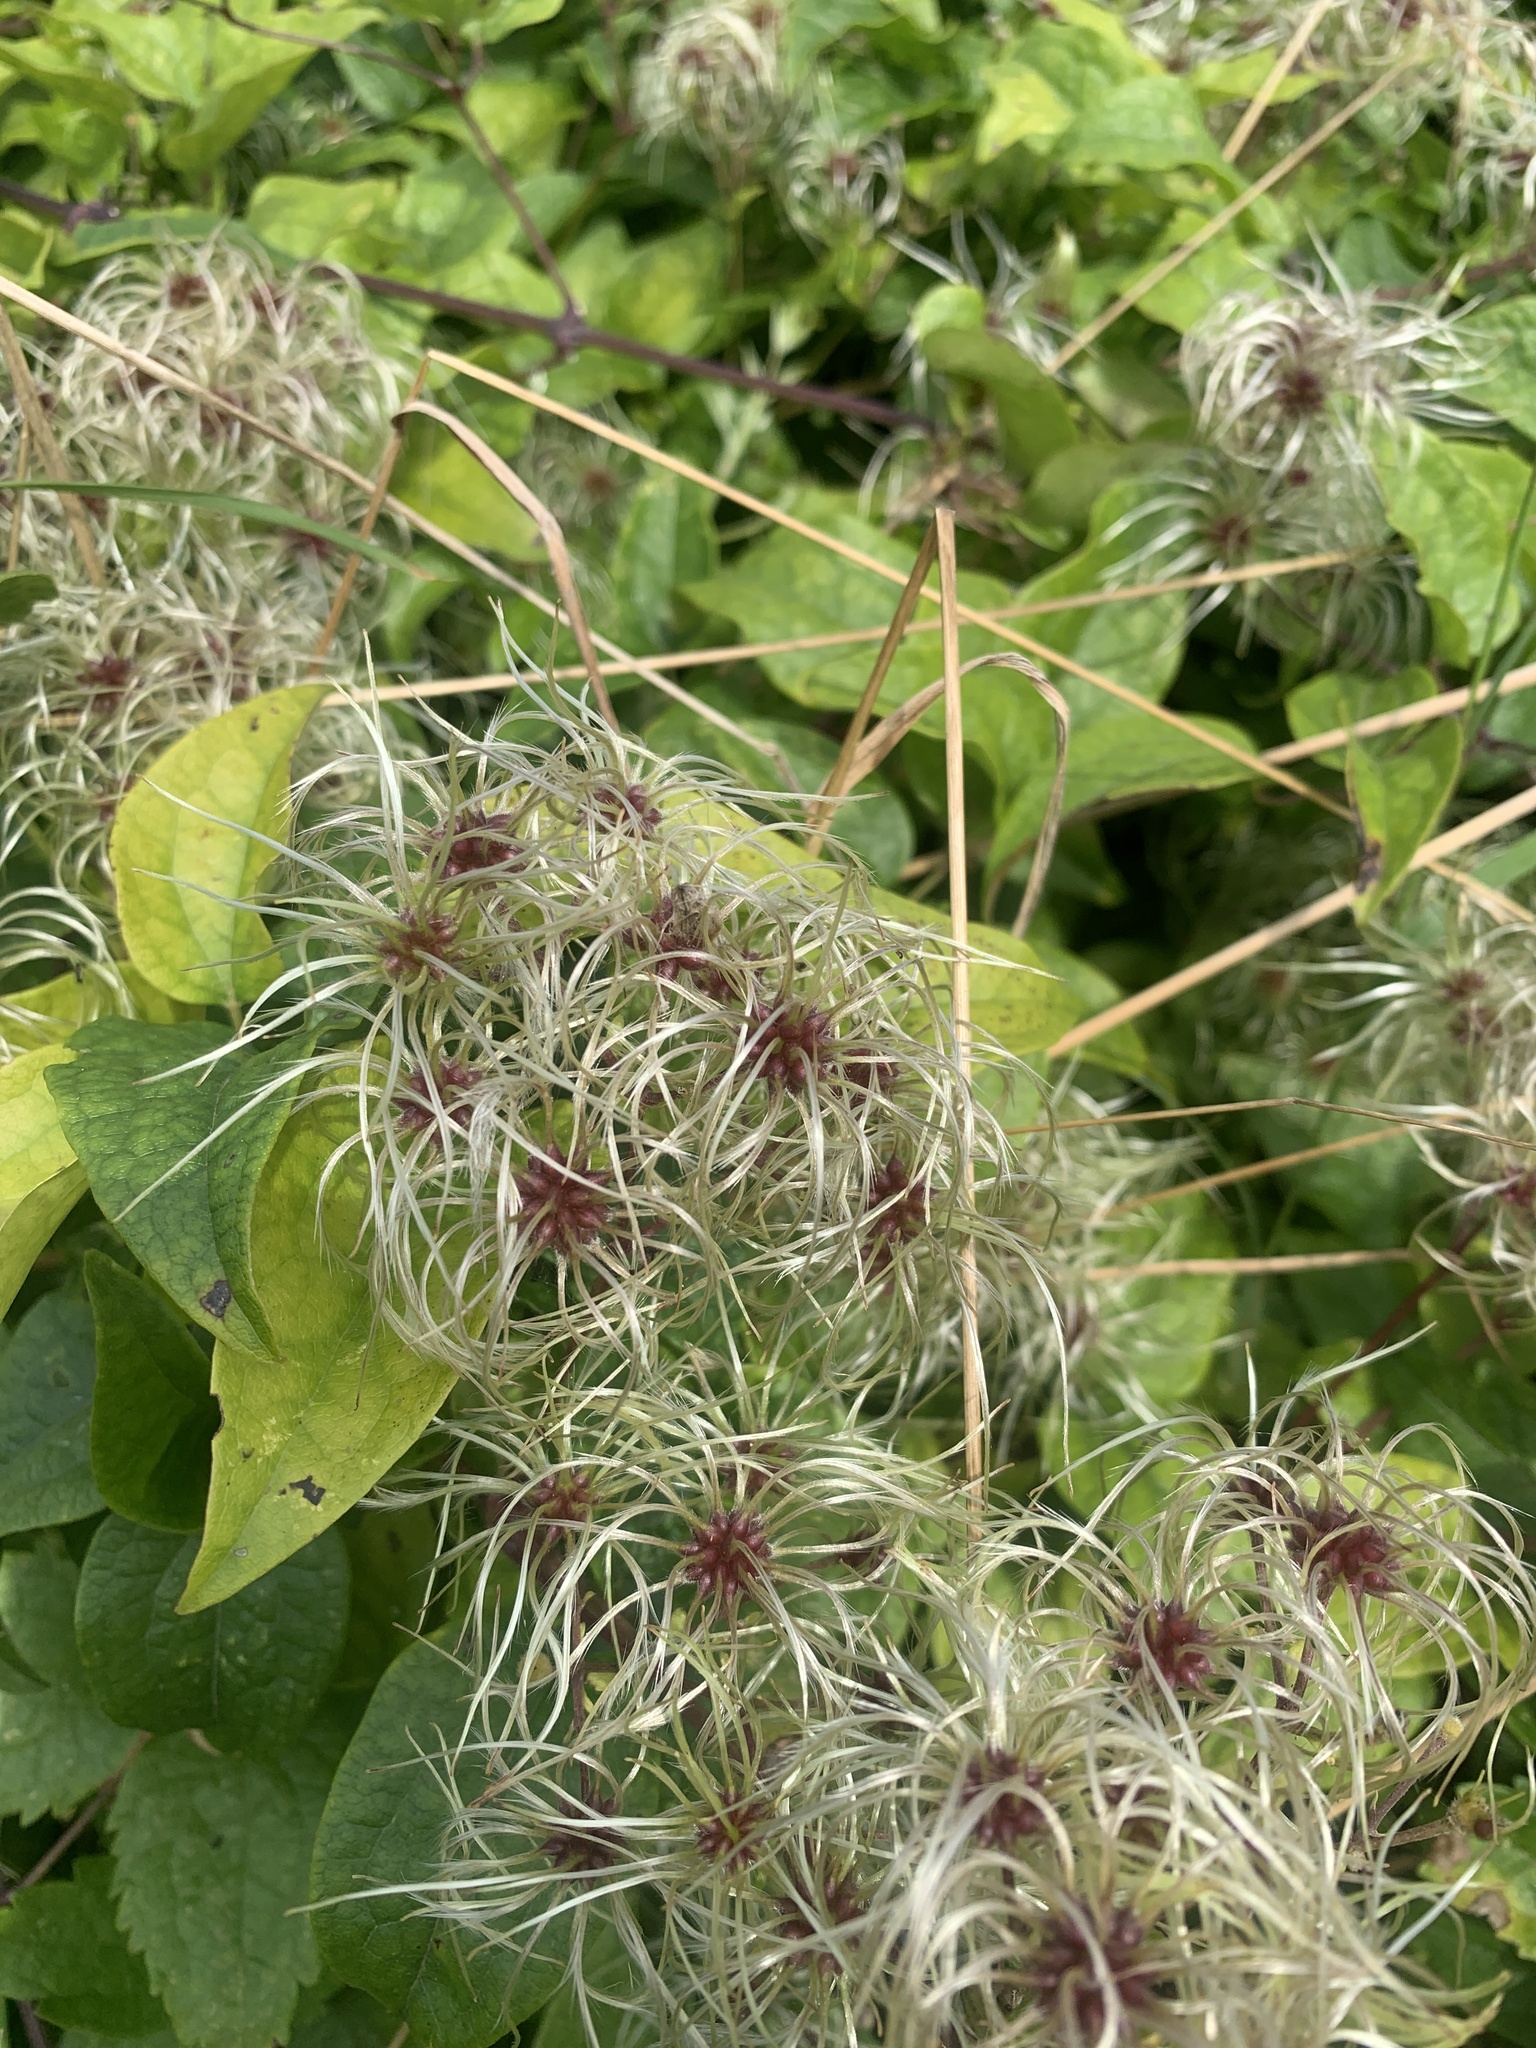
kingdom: Plantae
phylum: Tracheophyta
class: Magnoliopsida
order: Ranunculales
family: Ranunculaceae
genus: Clematis
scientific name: Clematis vitalba
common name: Evergreen clematis
